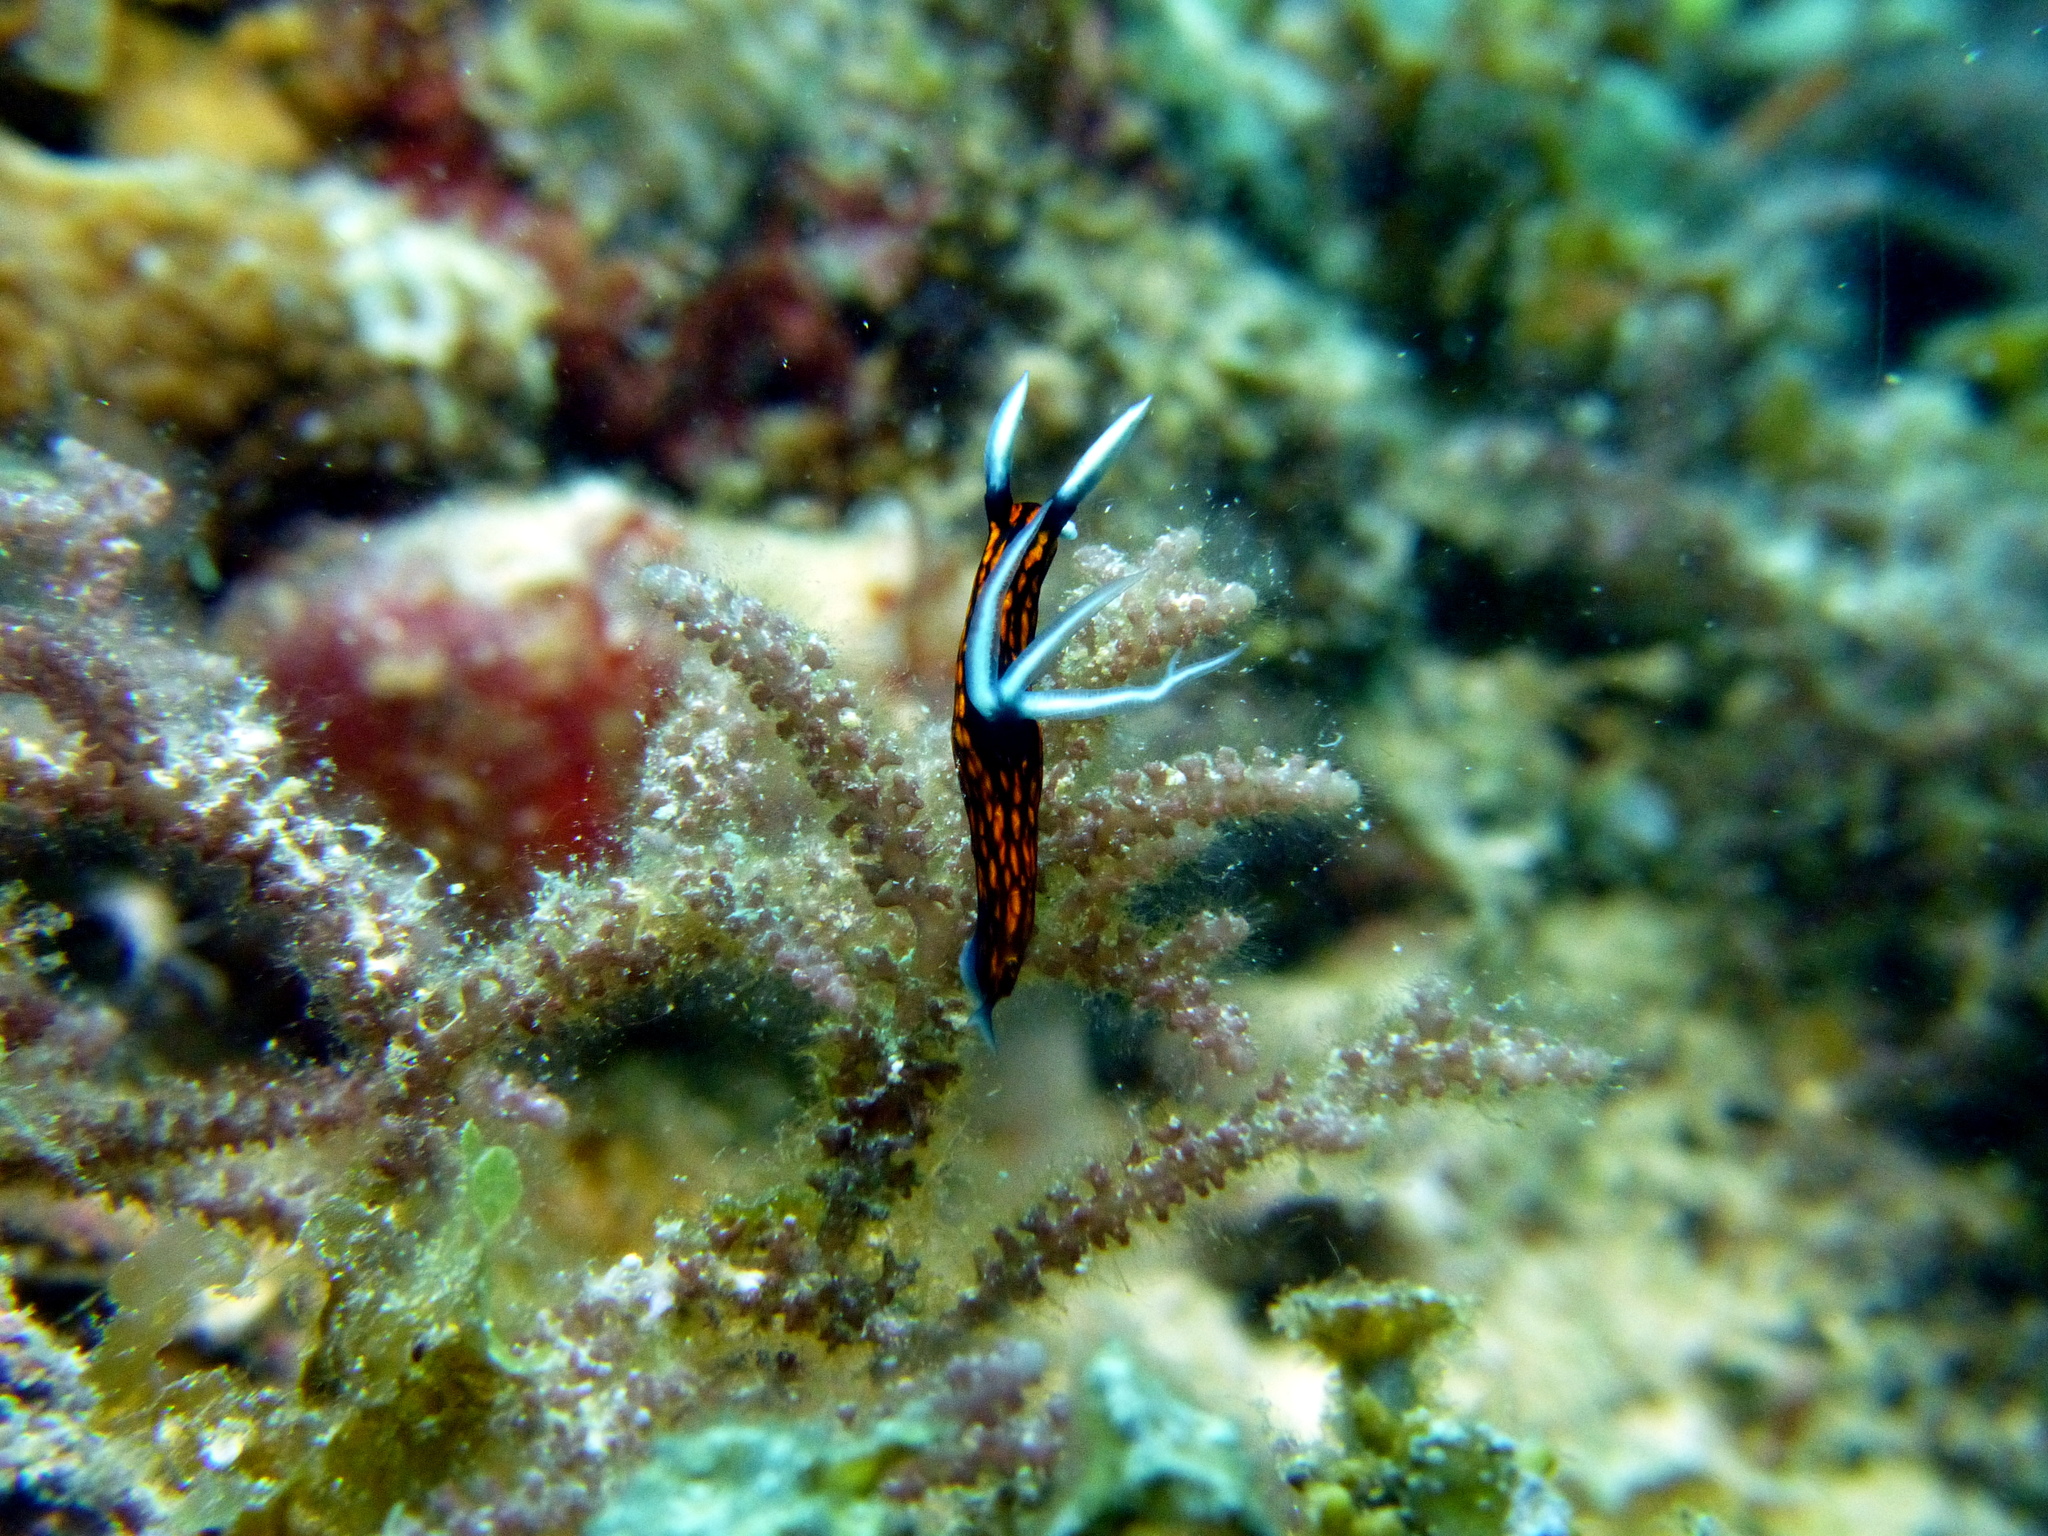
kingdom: Animalia
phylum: Mollusca
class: Gastropoda
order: Nudibranchia
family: Polyceridae
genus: Roboastra
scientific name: Roboastra gracilis
